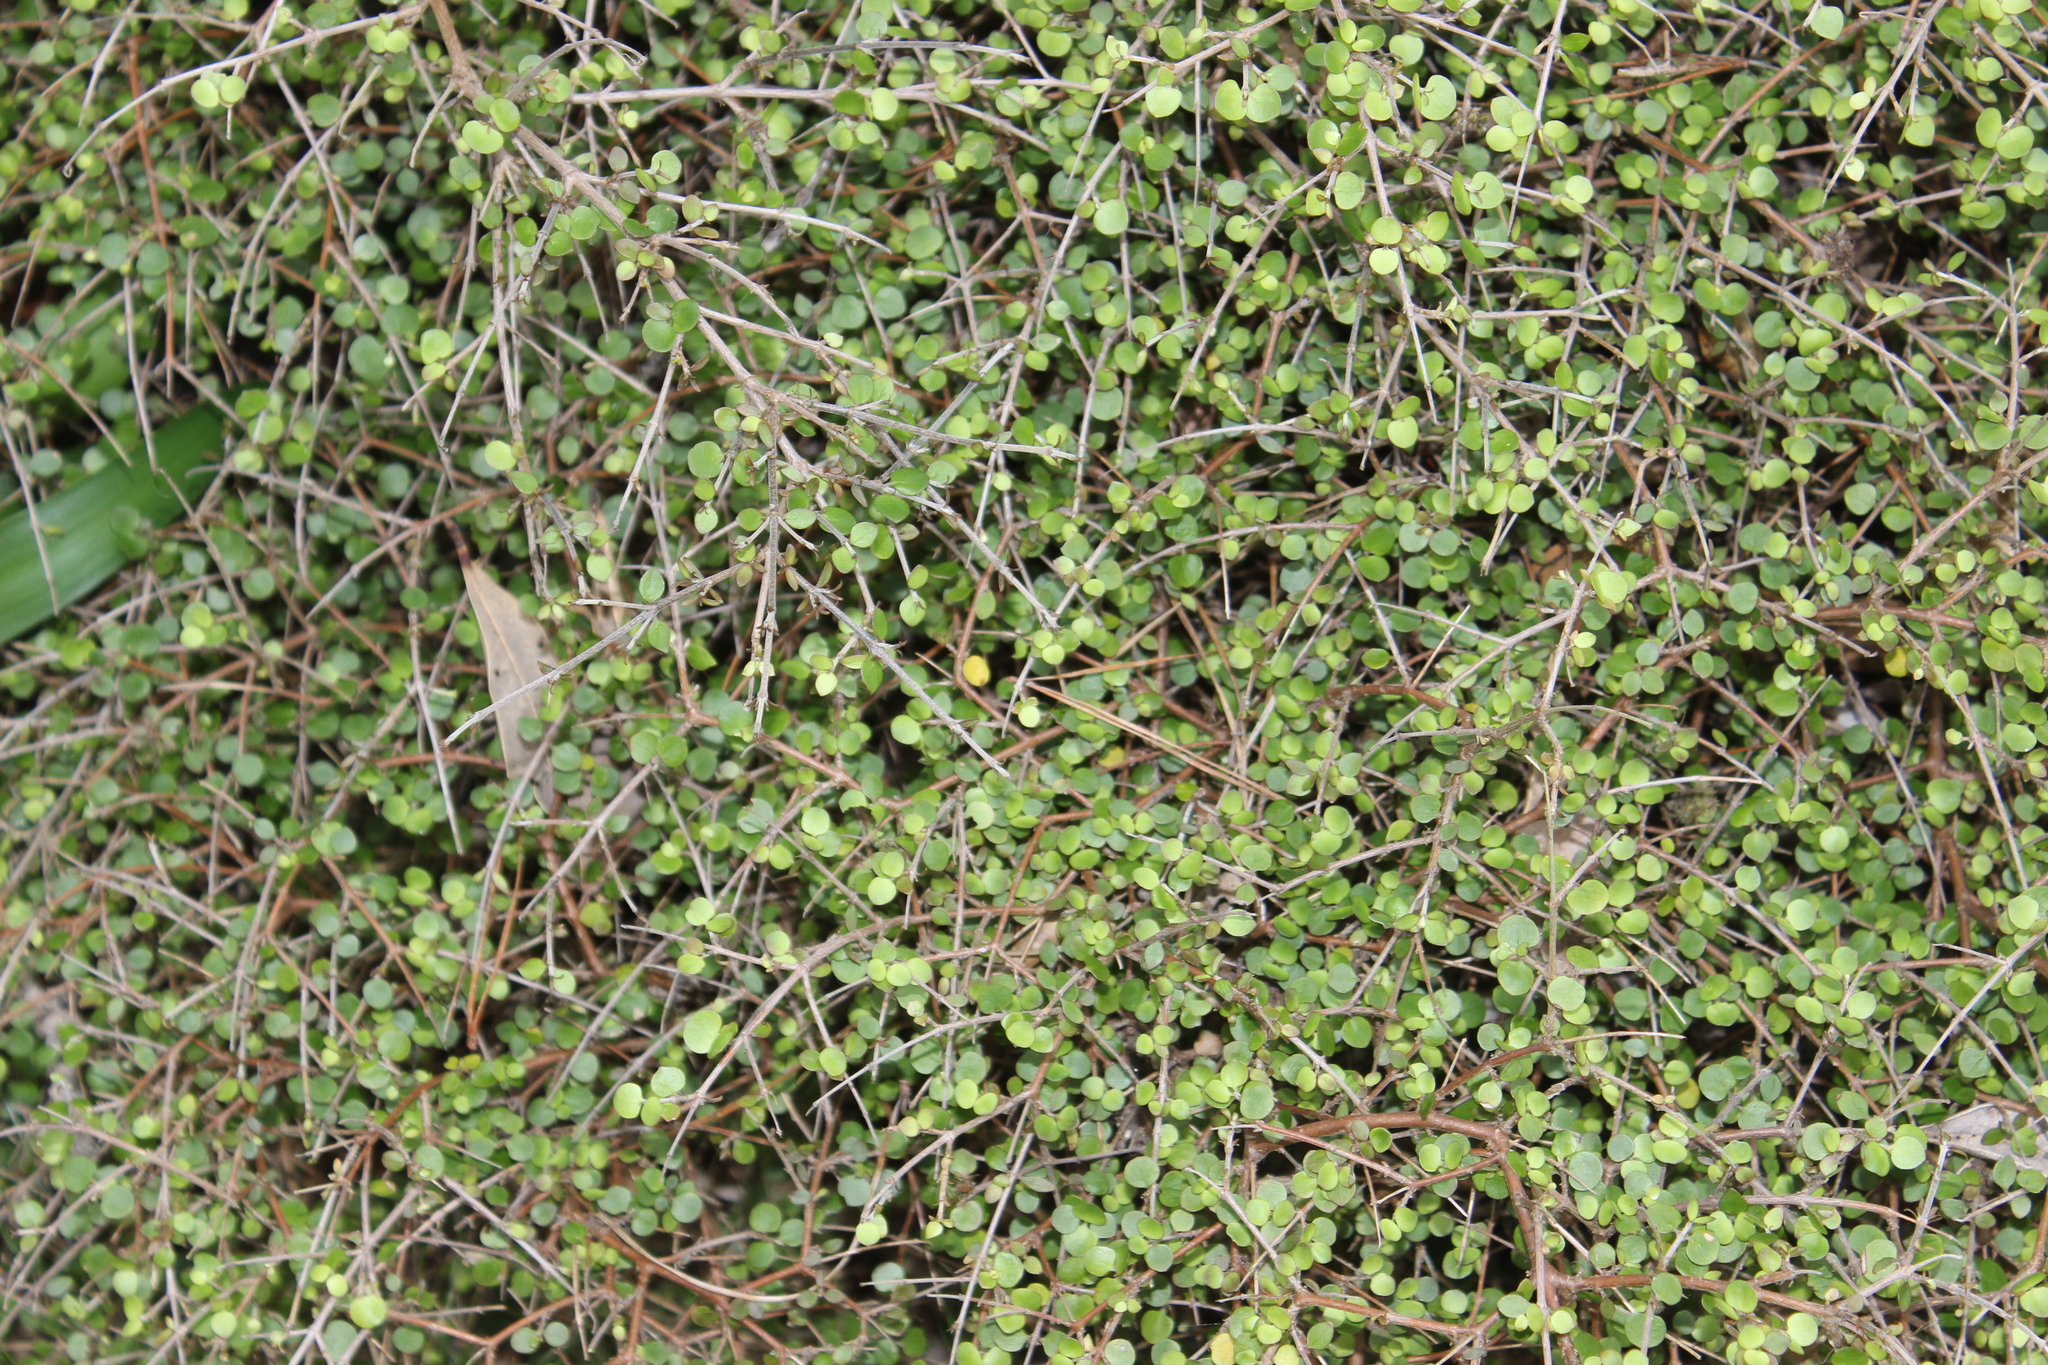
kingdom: Plantae
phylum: Tracheophyta
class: Magnoliopsida
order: Gentianales
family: Rubiaceae
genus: Coprosma
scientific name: Coprosma rhamnoides
